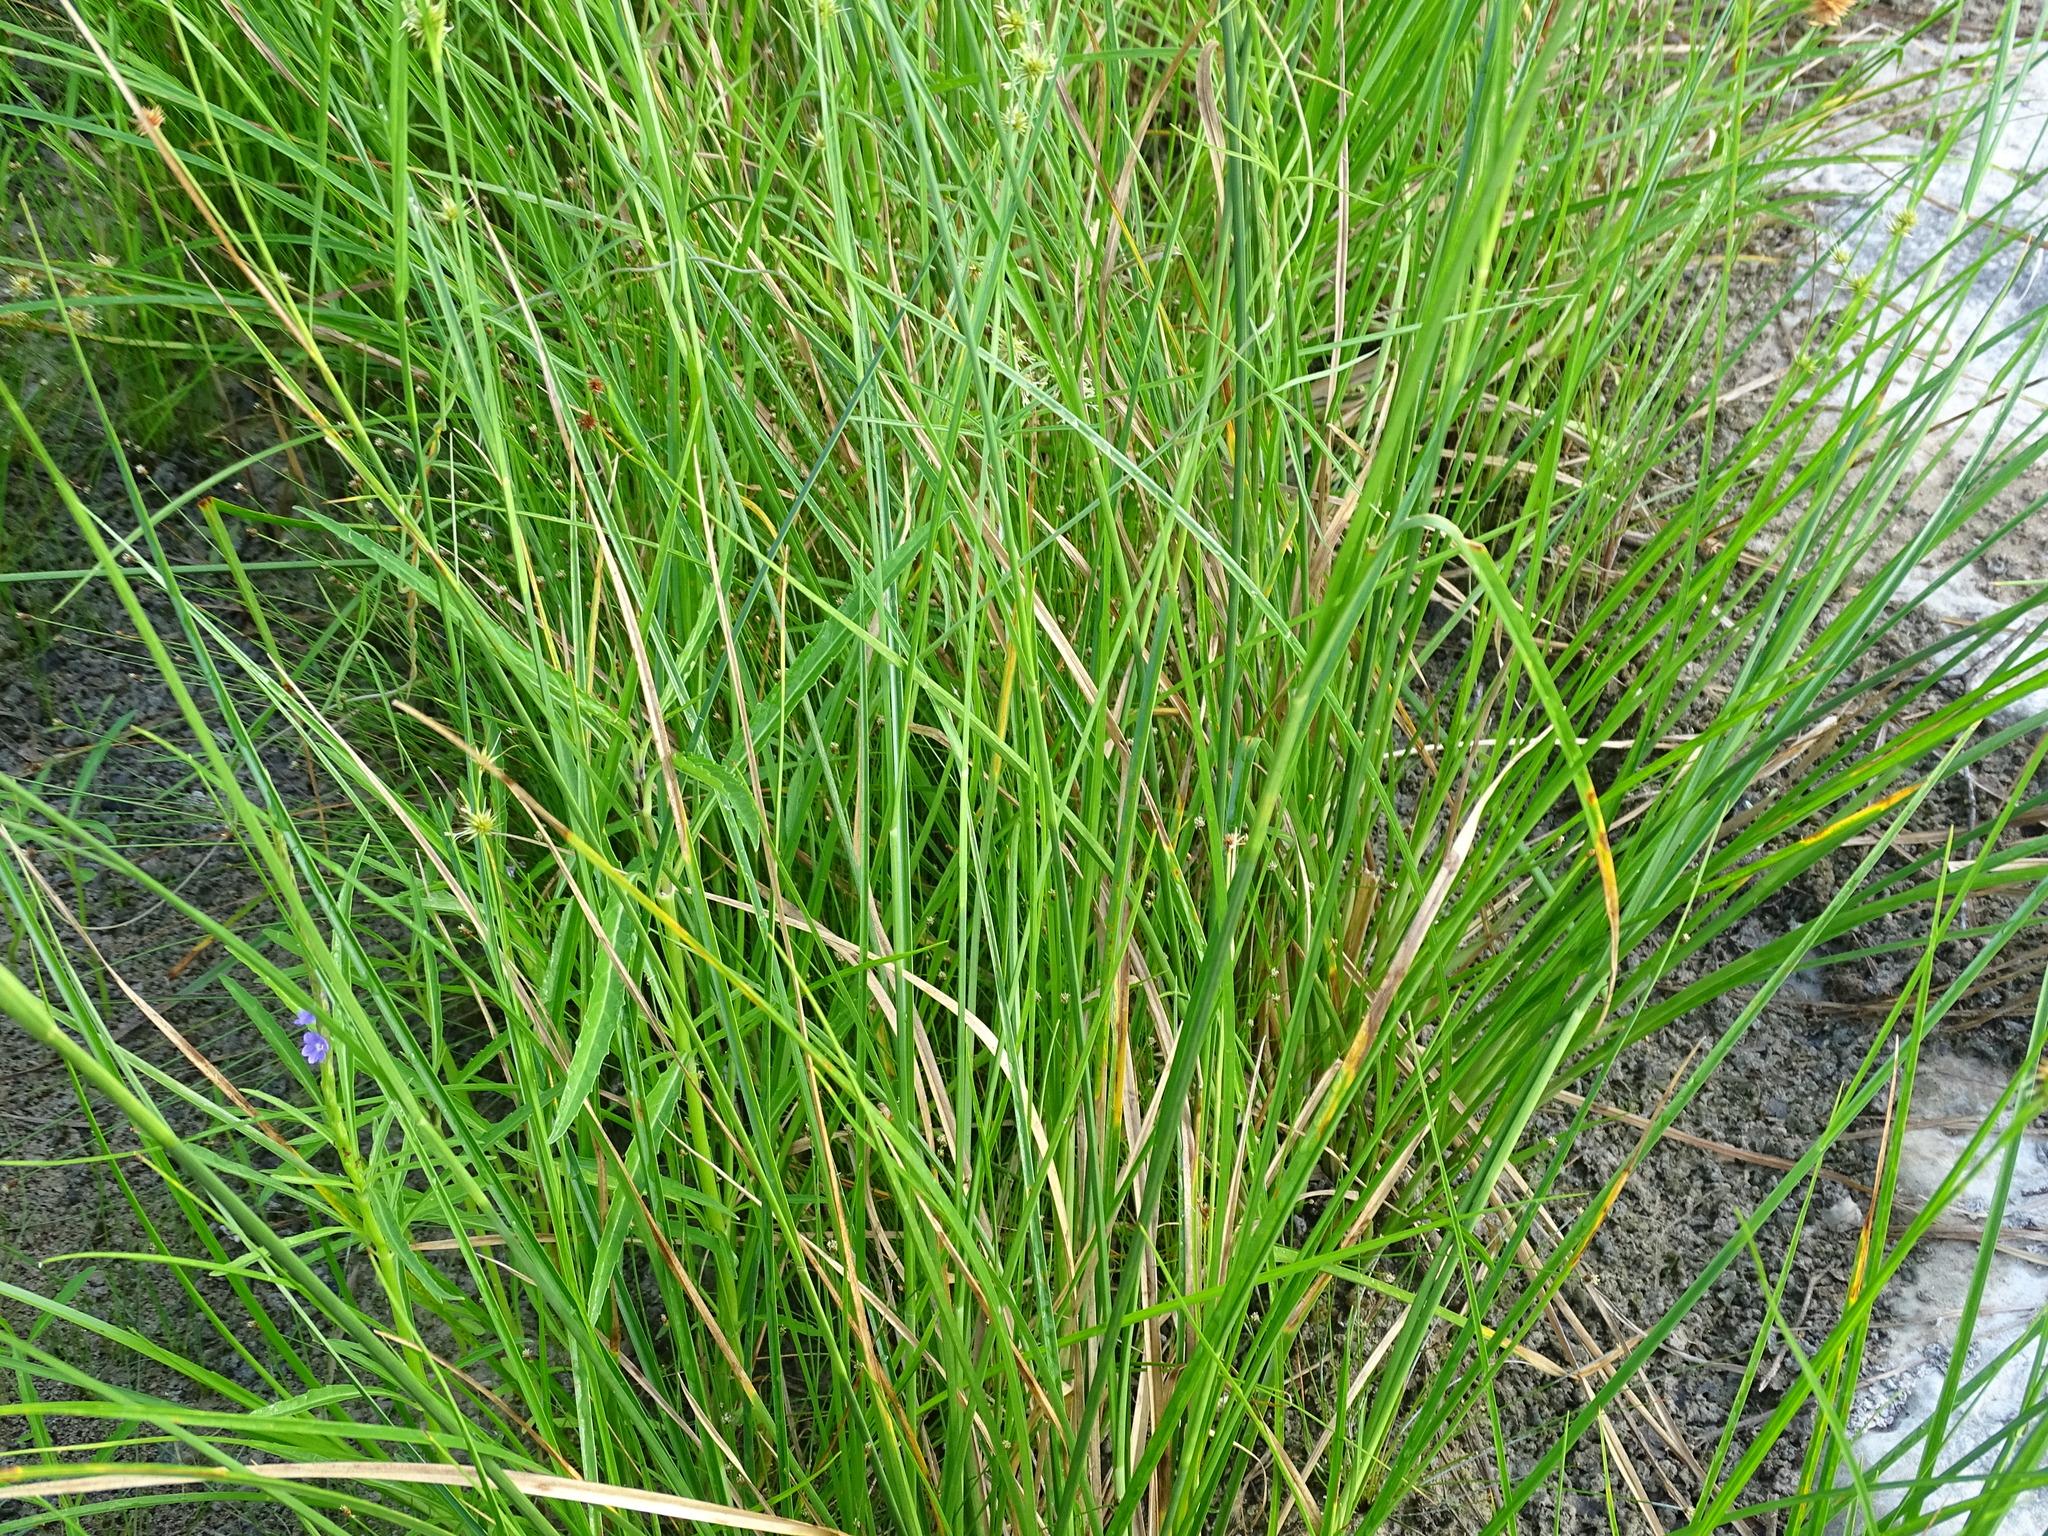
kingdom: Plantae
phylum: Tracheophyta
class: Liliopsida
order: Poales
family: Cyperaceae
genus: Rhynchospora
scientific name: Rhynchospora holoschoenoides
